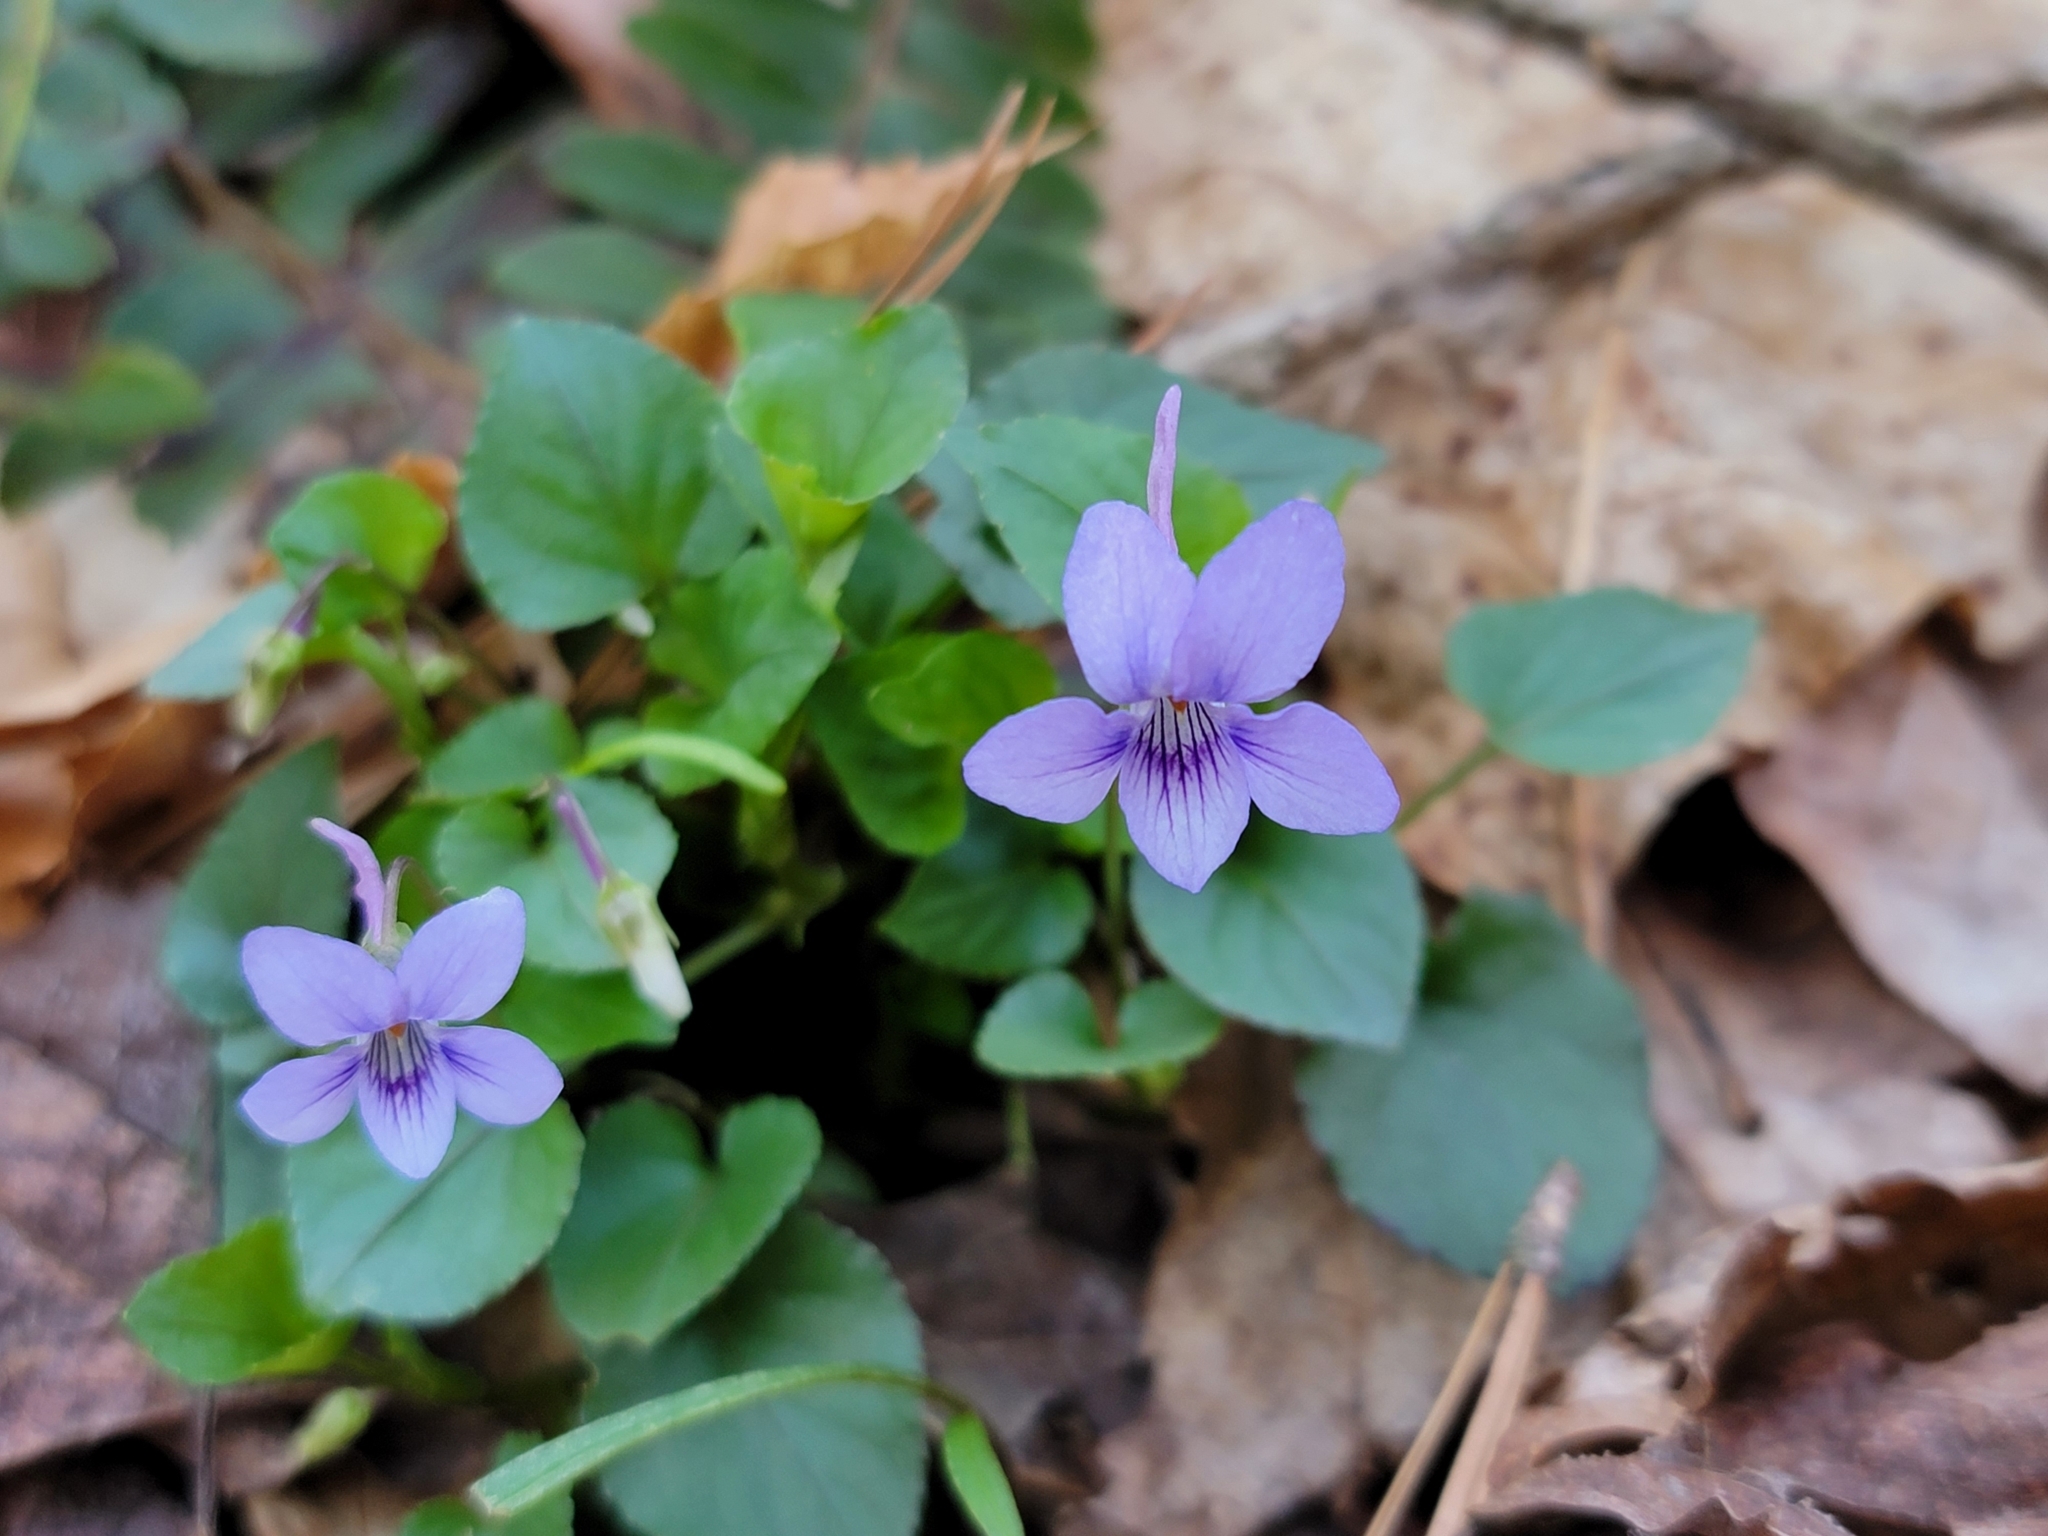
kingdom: Plantae
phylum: Tracheophyta
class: Magnoliopsida
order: Malpighiales
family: Violaceae
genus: Viola
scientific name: Viola rostrata
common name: Long-spur violet
